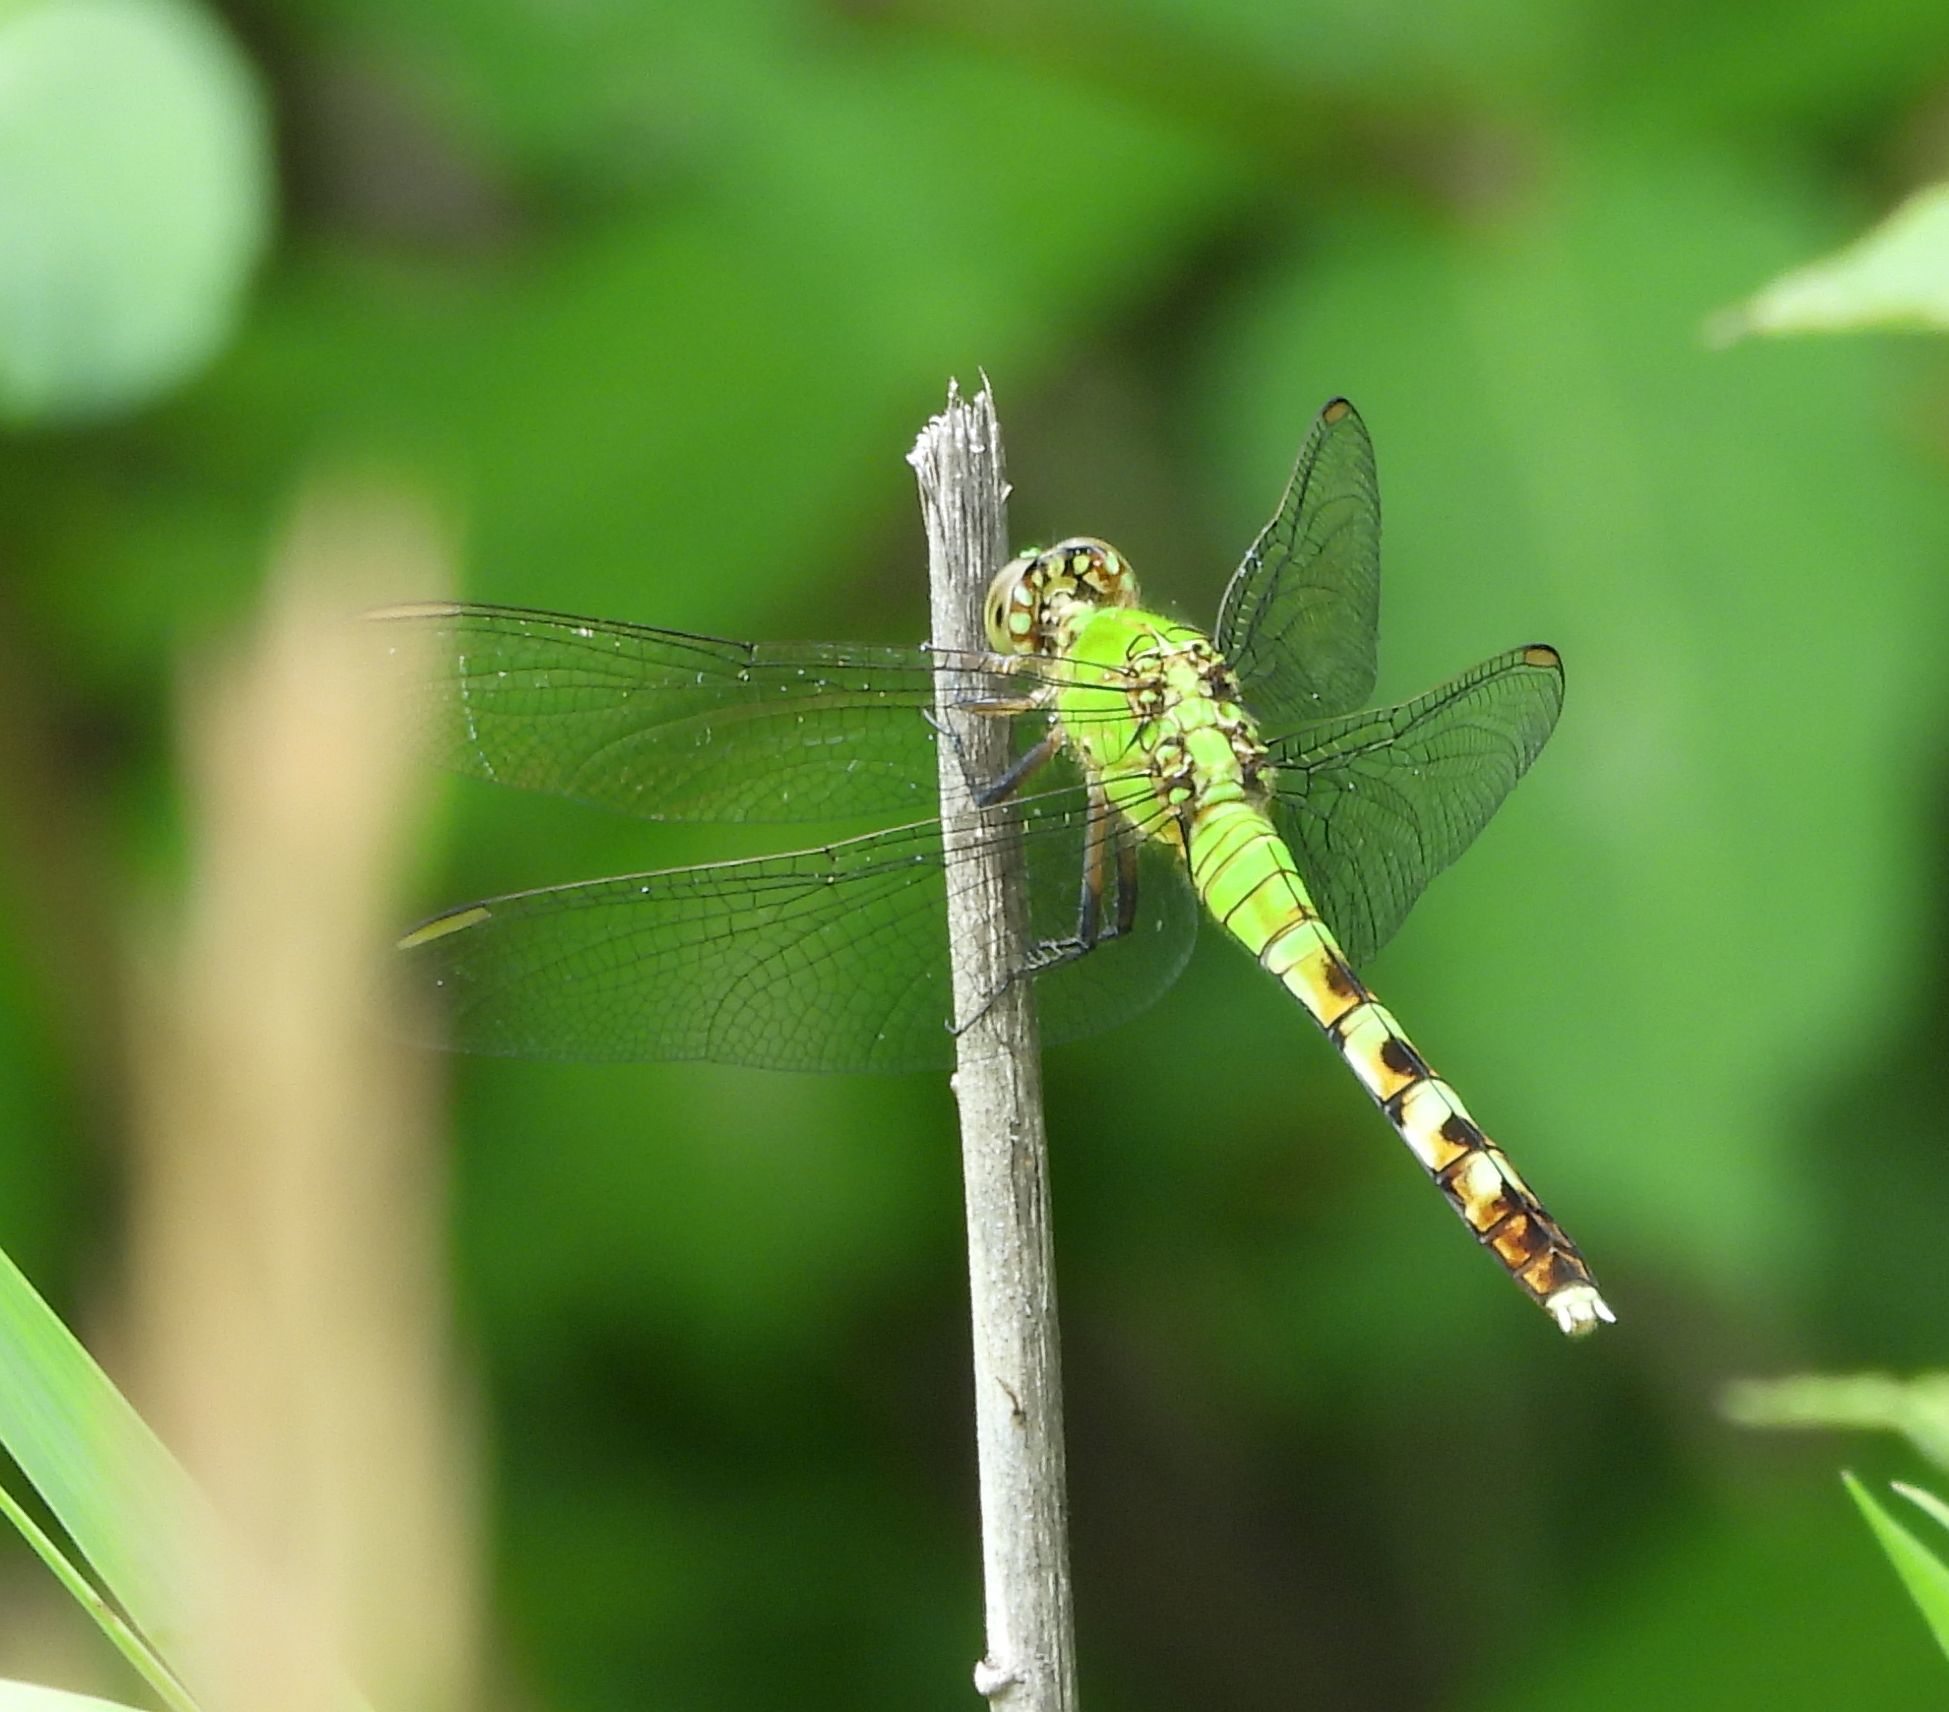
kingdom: Animalia
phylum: Arthropoda
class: Insecta
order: Odonata
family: Libellulidae
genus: Erythemis
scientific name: Erythemis simplicicollis
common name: Eastern pondhawk
